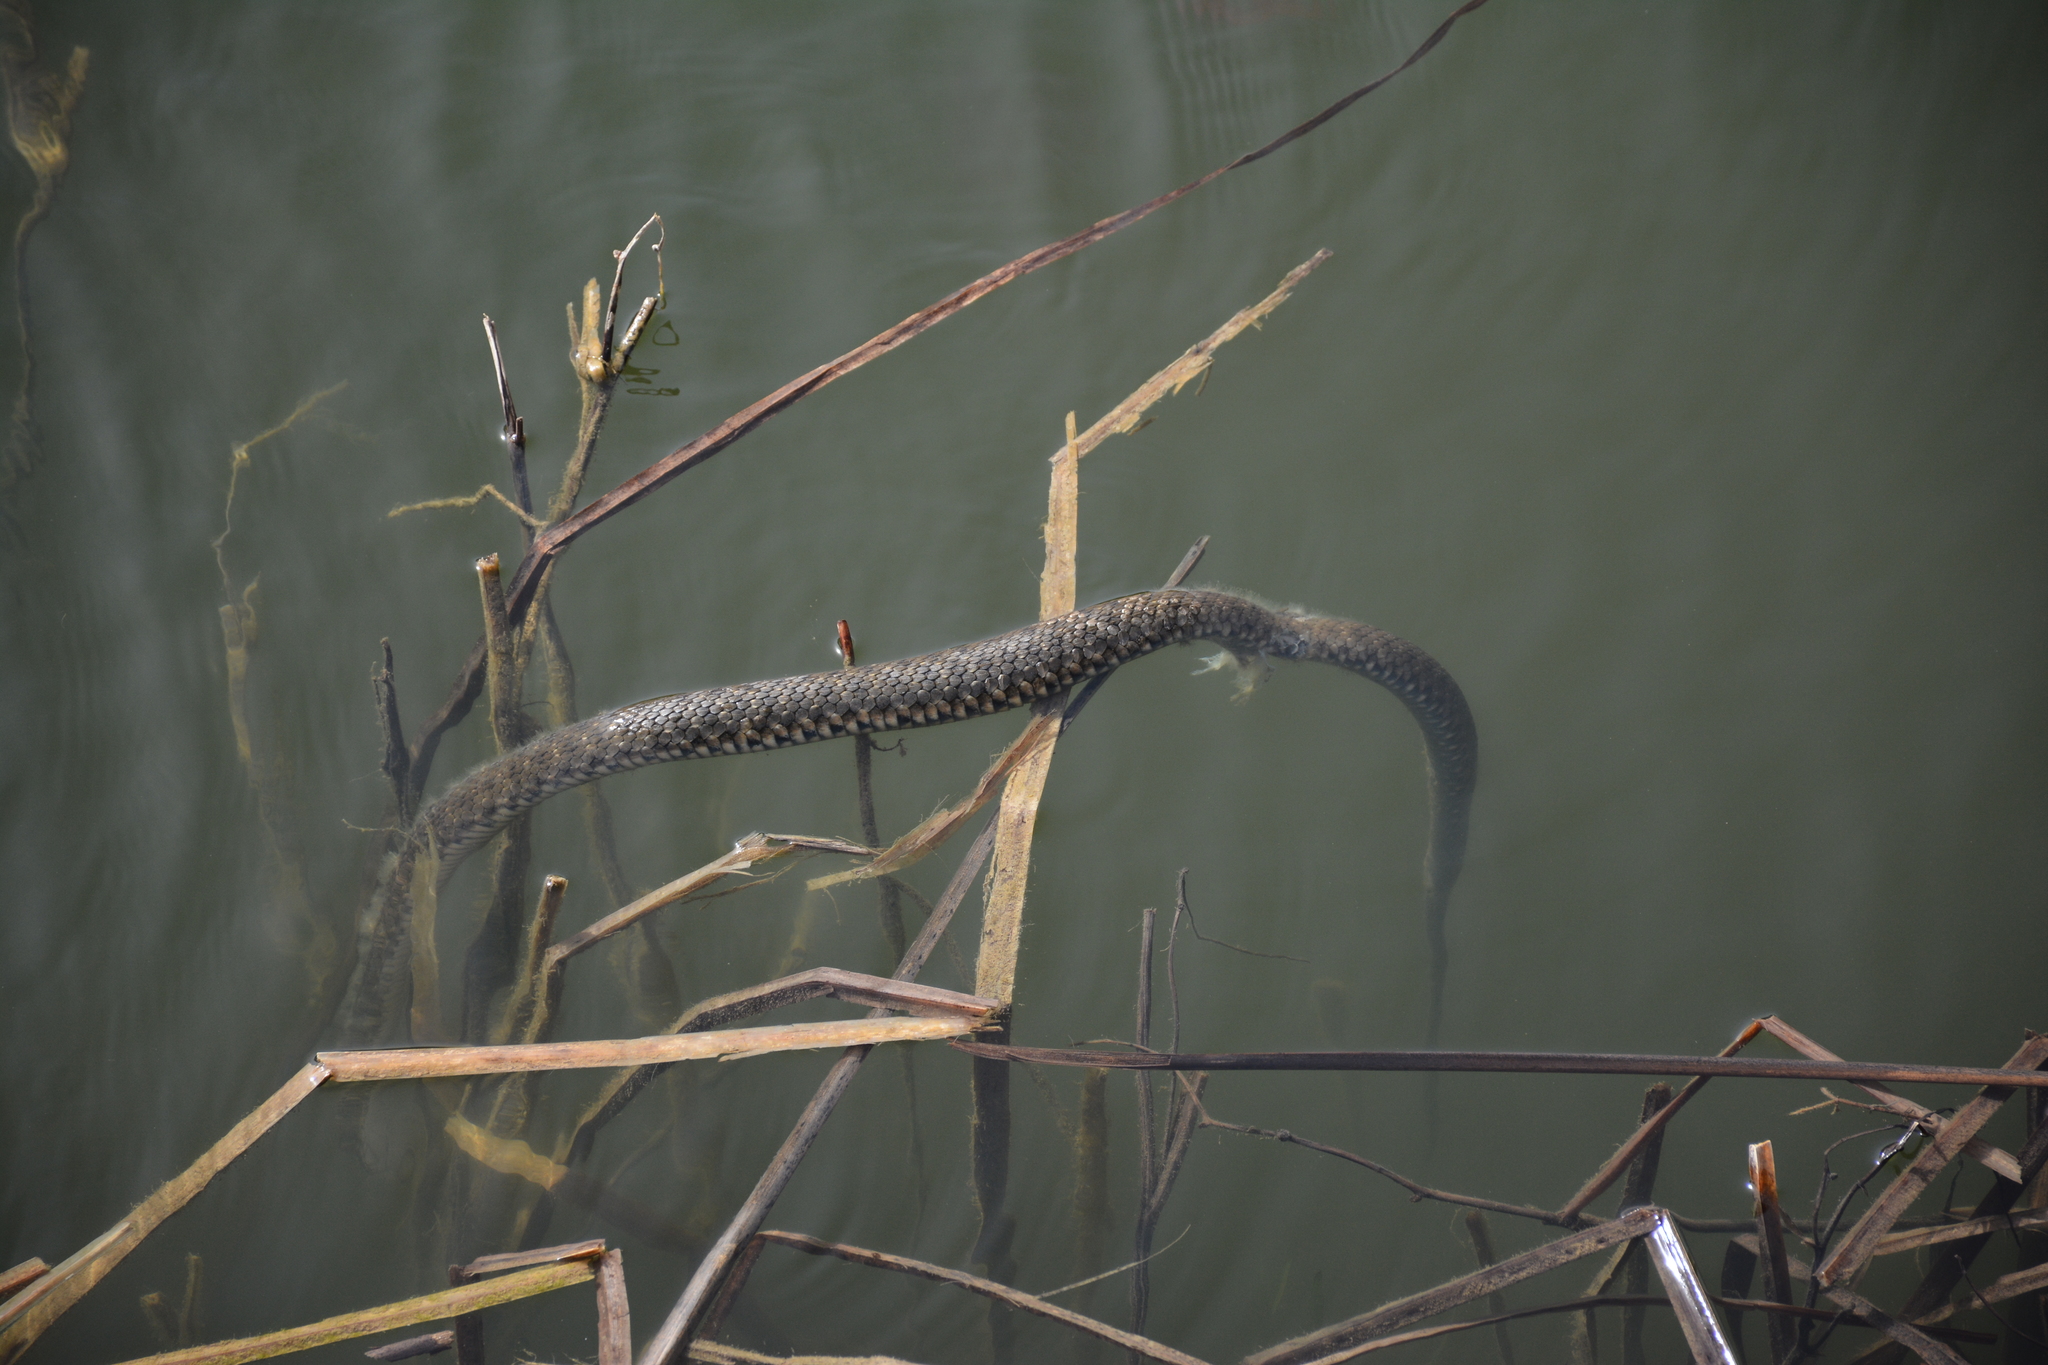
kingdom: Animalia
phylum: Chordata
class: Squamata
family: Colubridae
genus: Natrix
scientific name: Natrix tessellata
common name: Dice snake
